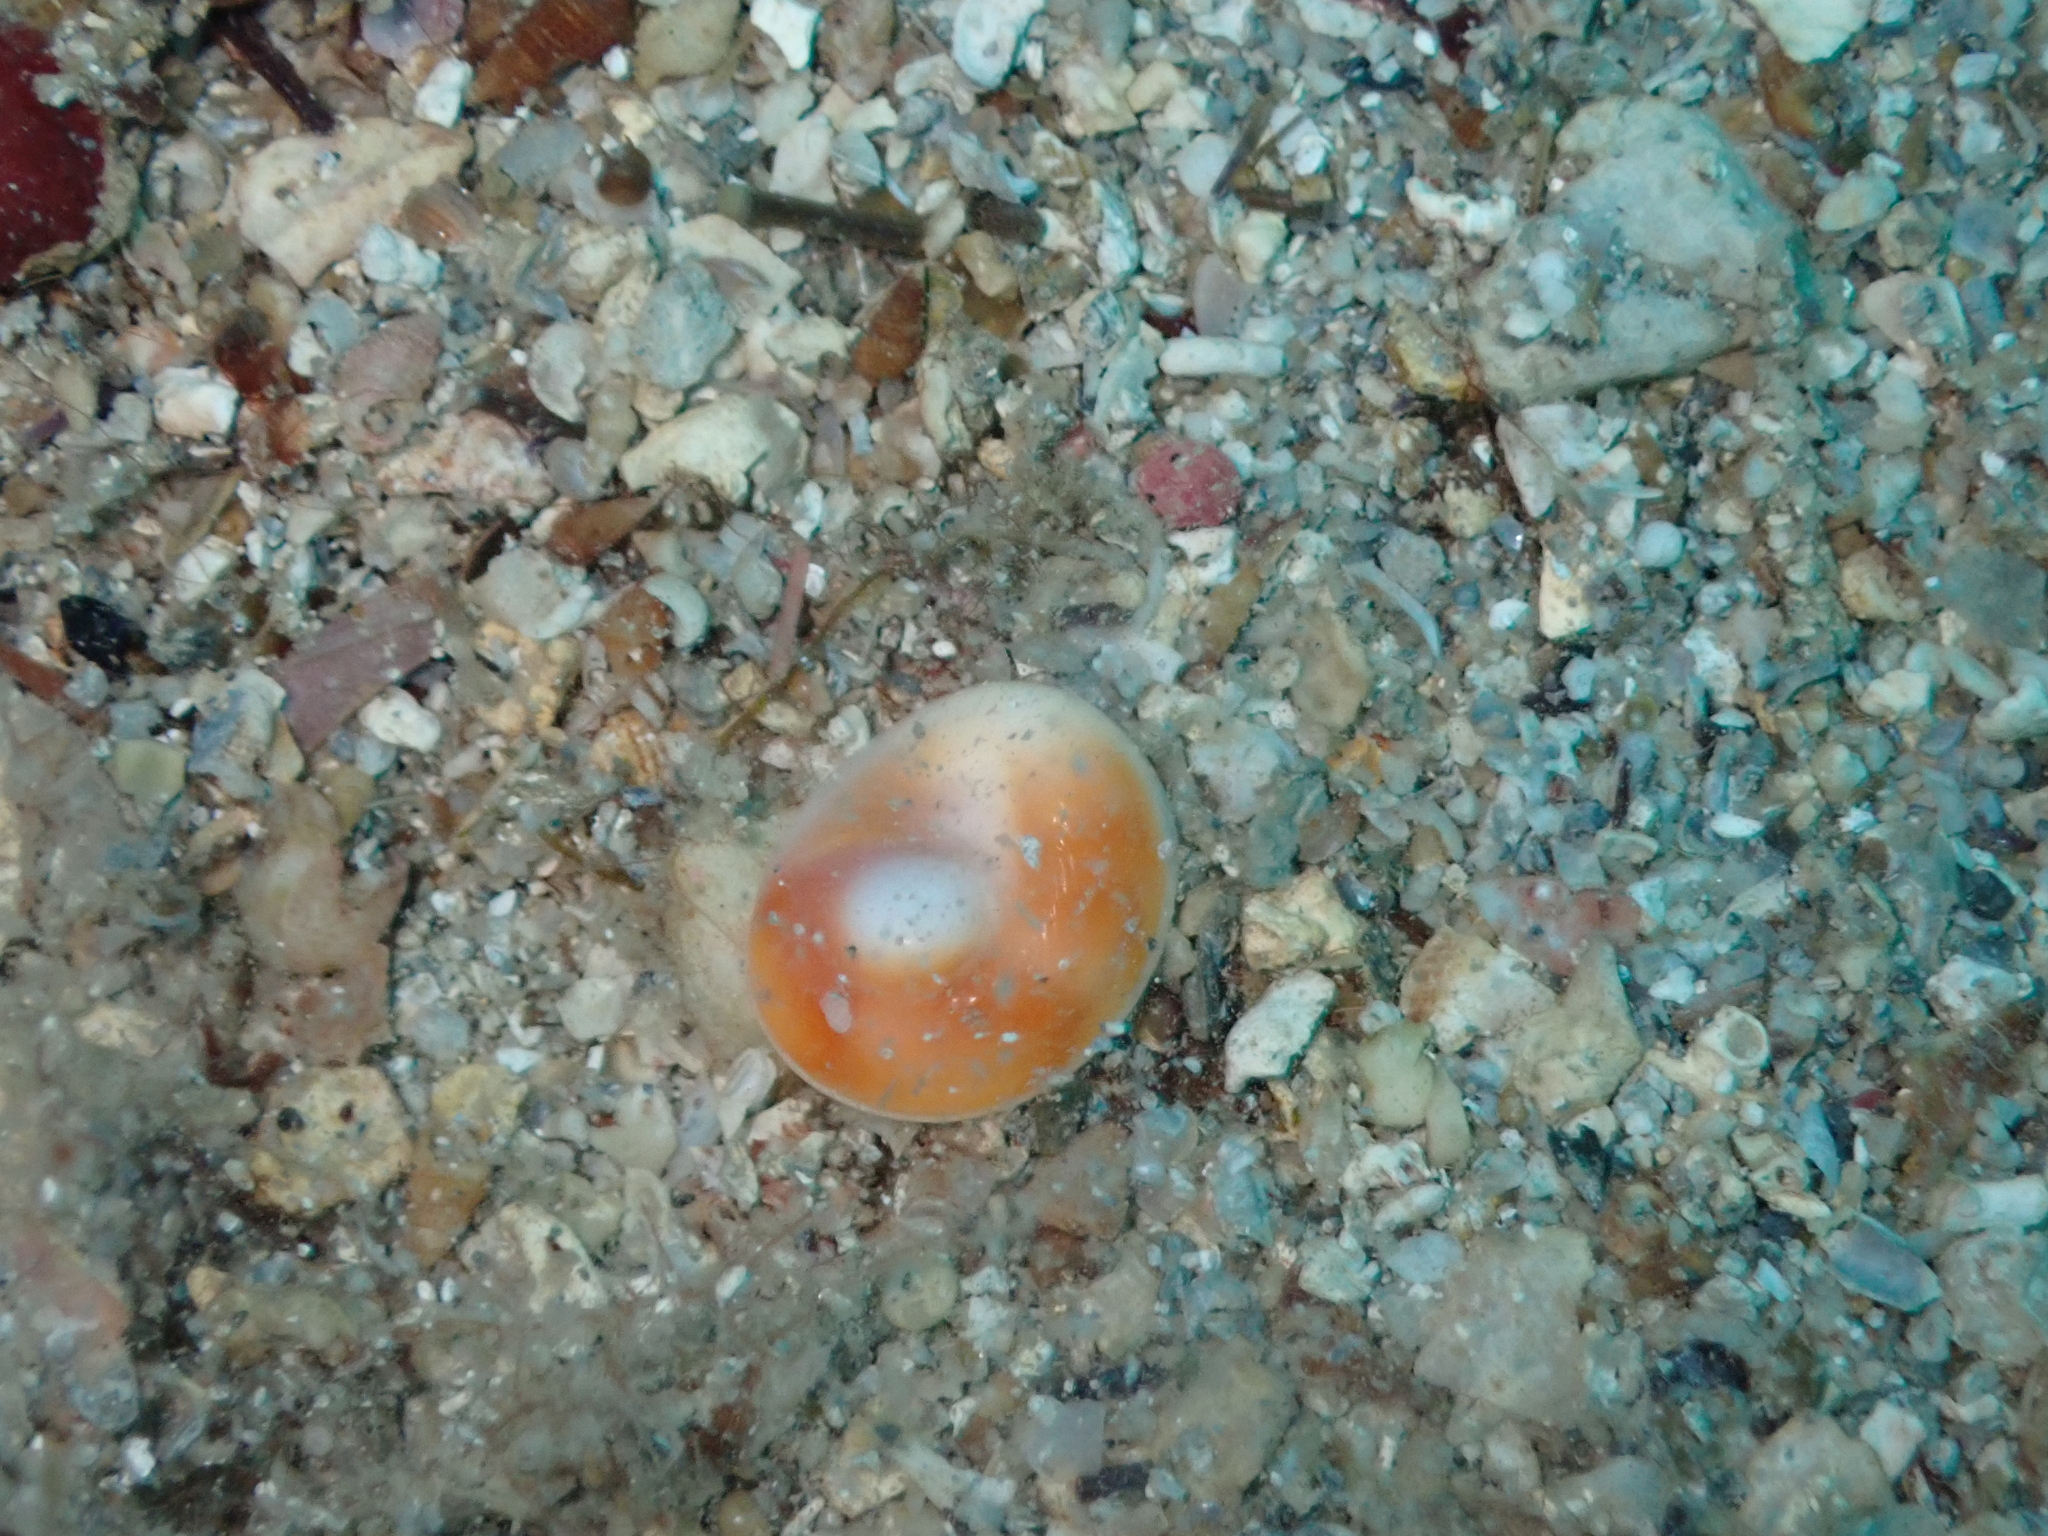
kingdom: Animalia
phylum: Mollusca
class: Gastropoda
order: Trochida
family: Turbinidae
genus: Bolma
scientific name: Bolma rugosa
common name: Rough star shell
